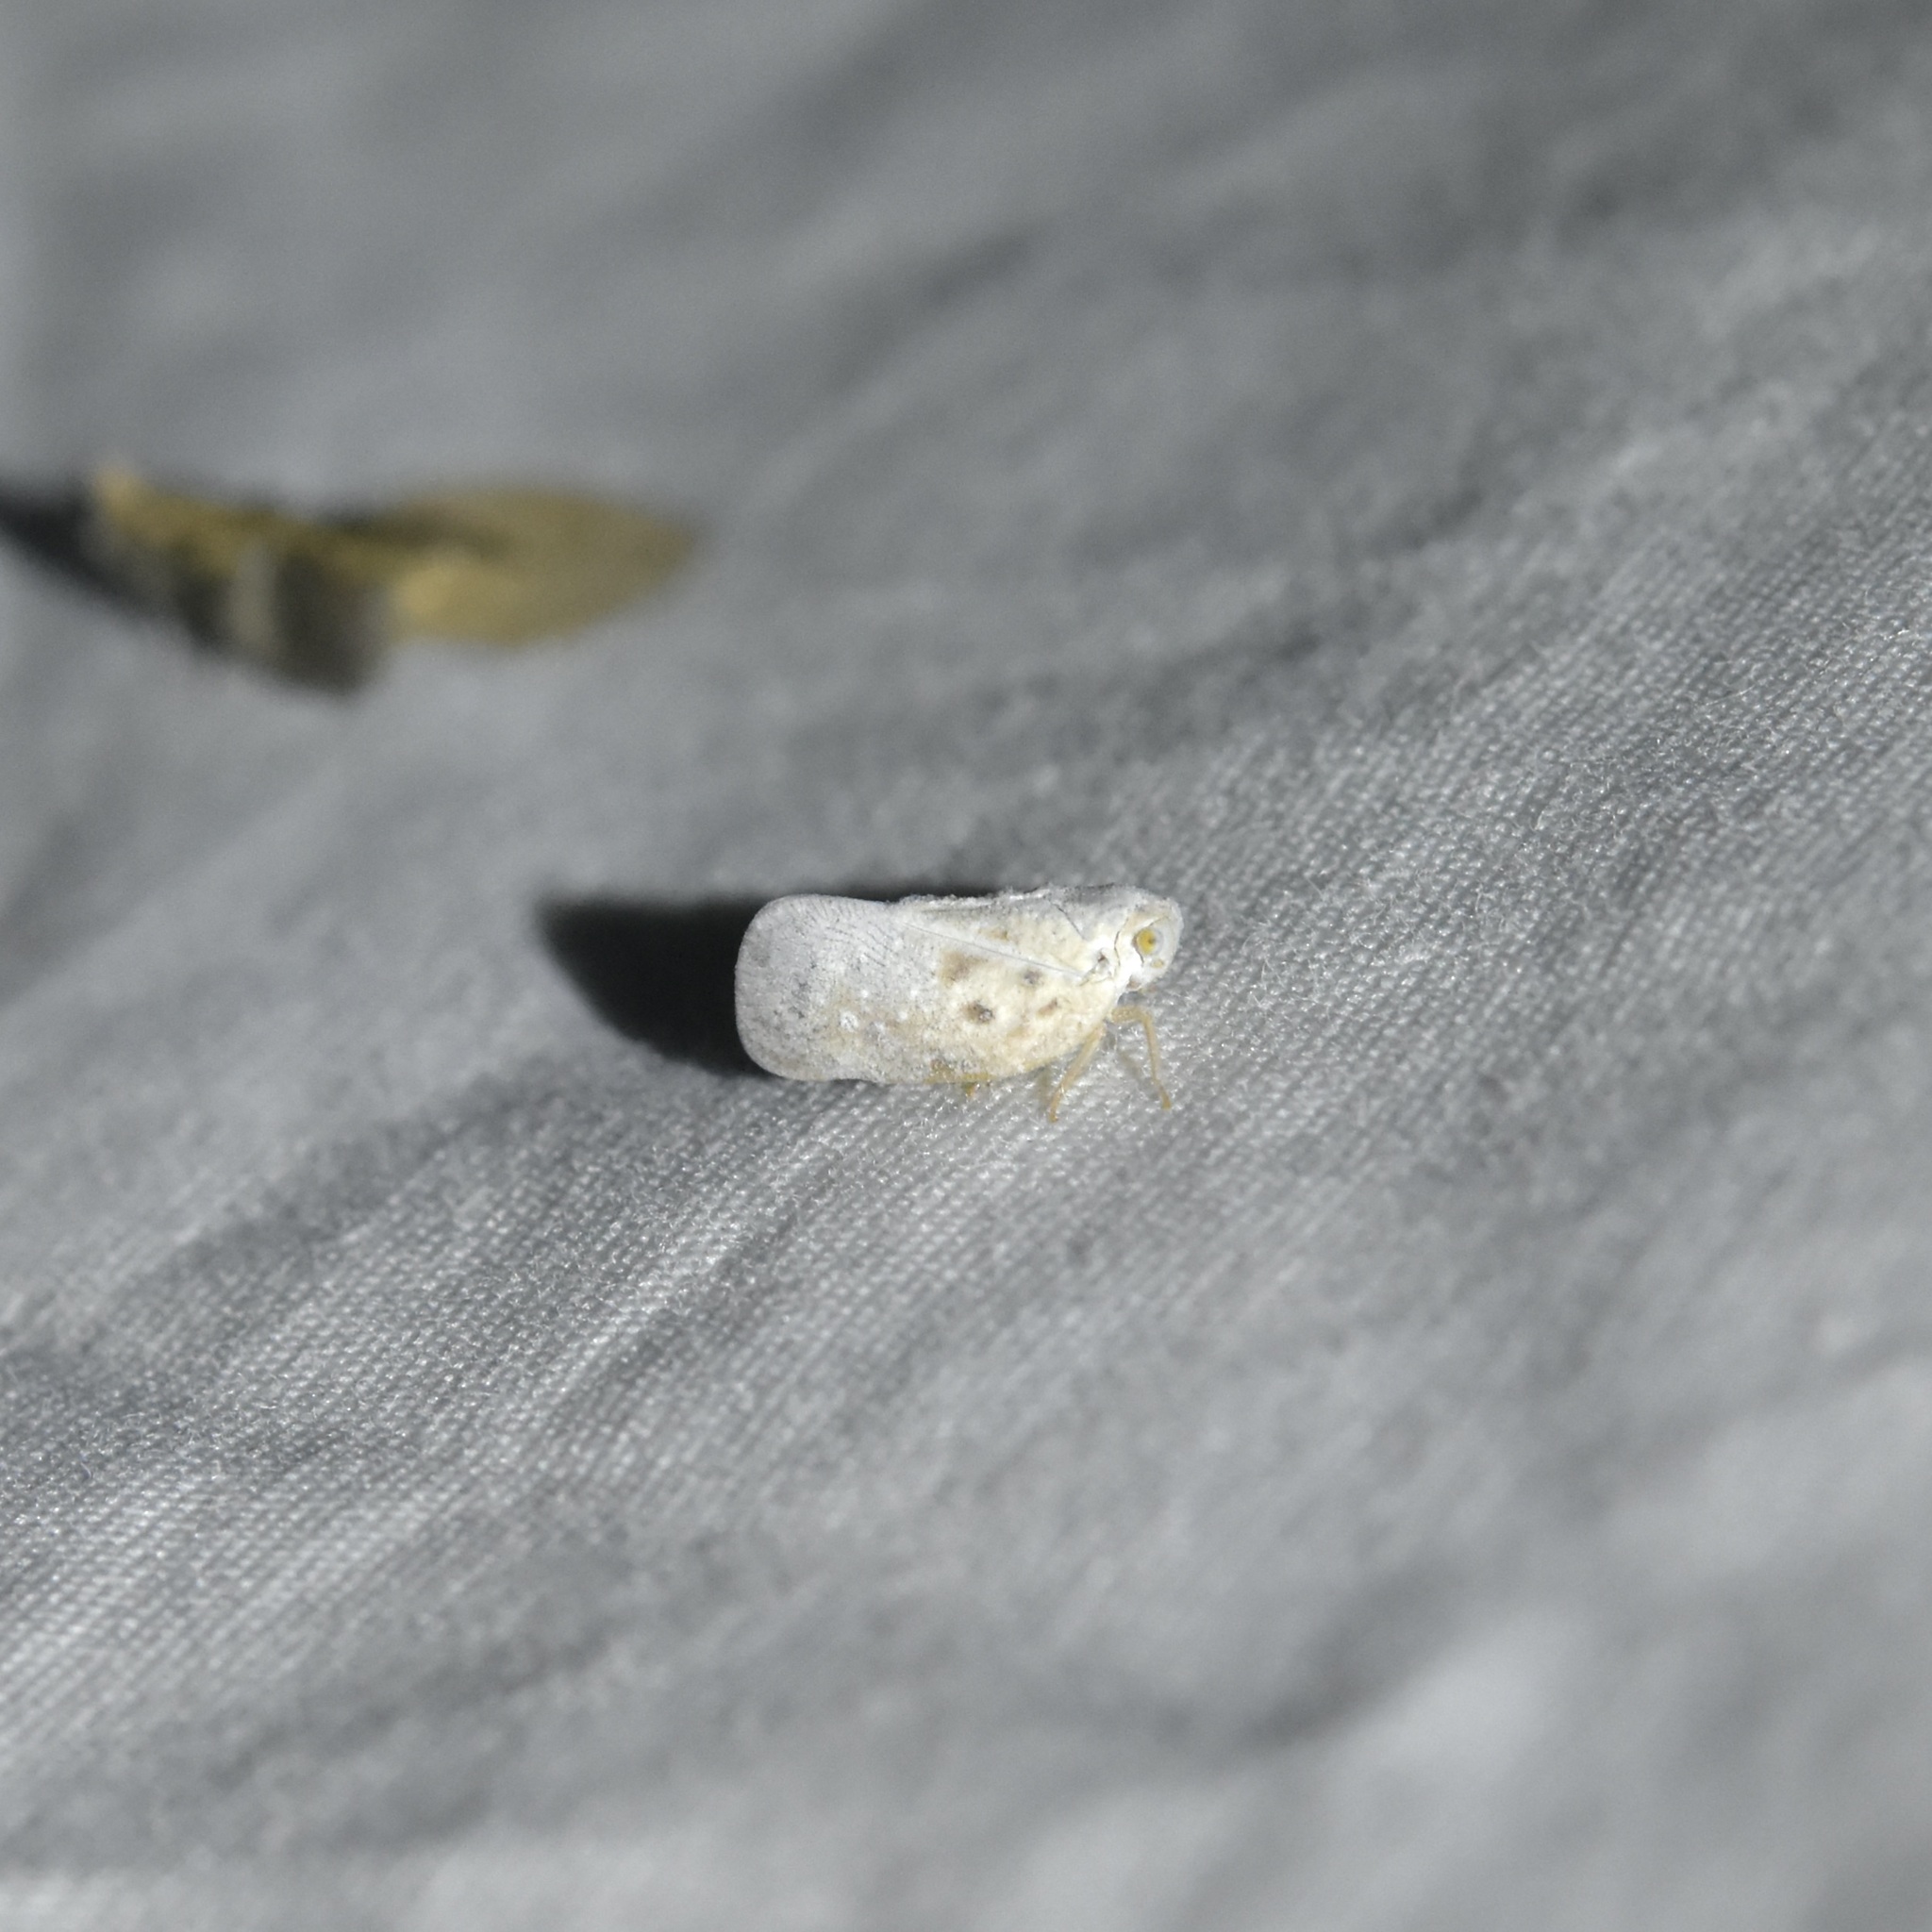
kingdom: Animalia
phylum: Arthropoda
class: Insecta
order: Hemiptera
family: Flatidae
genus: Metcalfa
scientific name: Metcalfa pruinosa
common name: Citrus flatid planthopper
